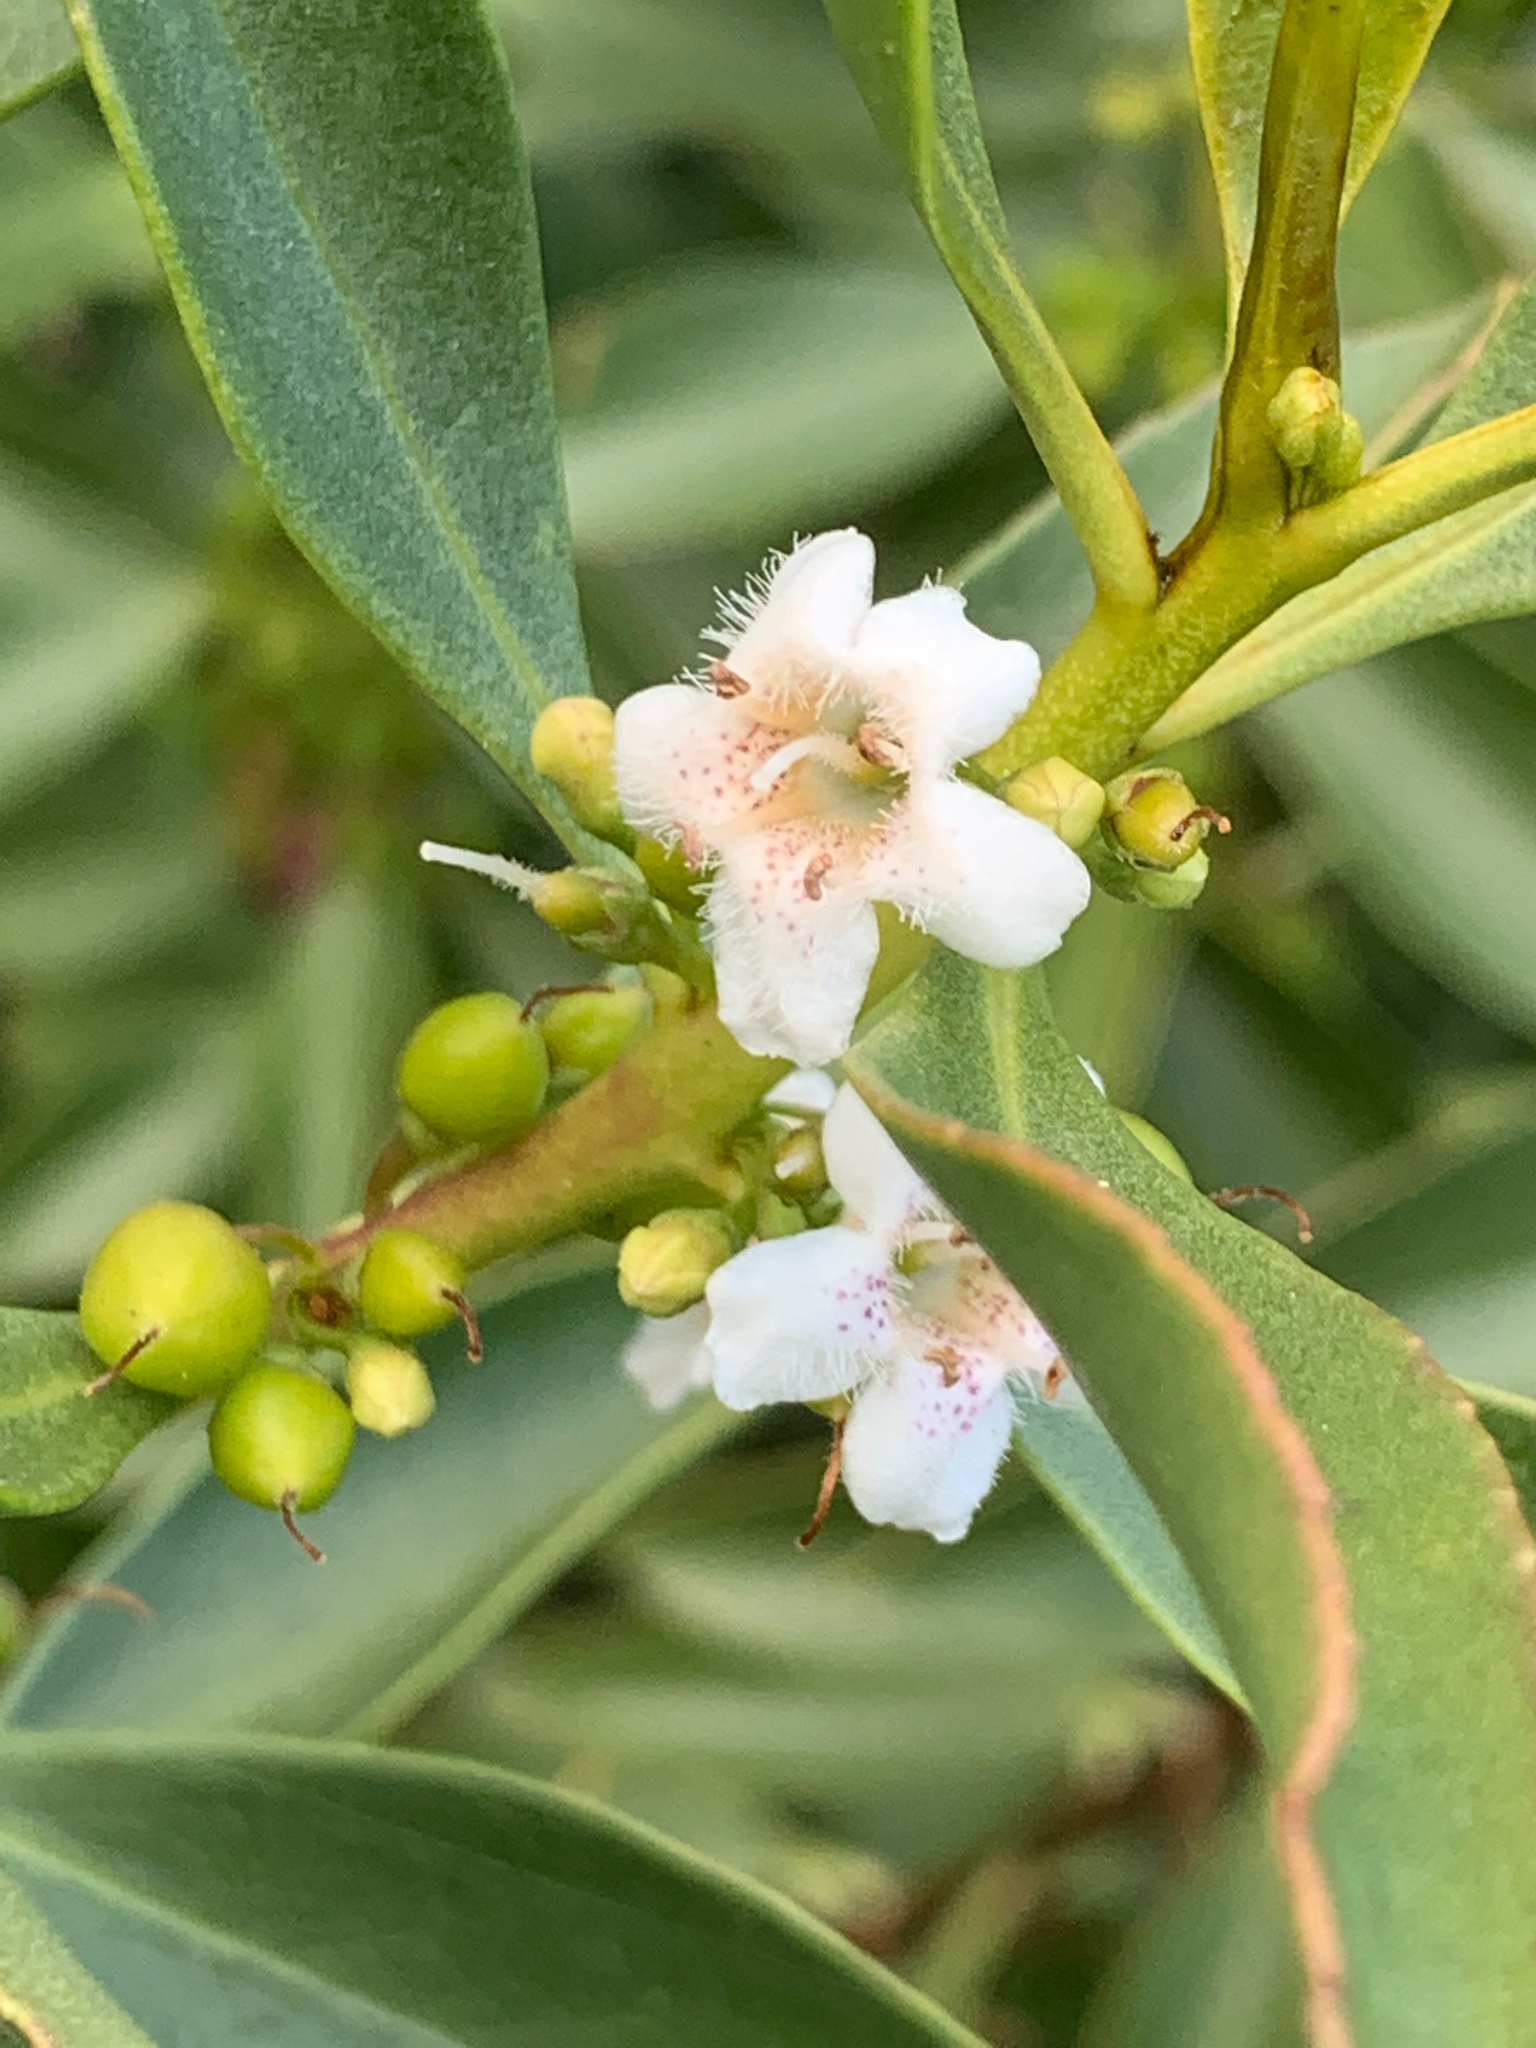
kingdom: Plantae
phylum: Tracheophyta
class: Magnoliopsida
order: Lamiales
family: Scrophulariaceae
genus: Myoporum
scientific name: Myoporum insulare
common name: Common boobialla
